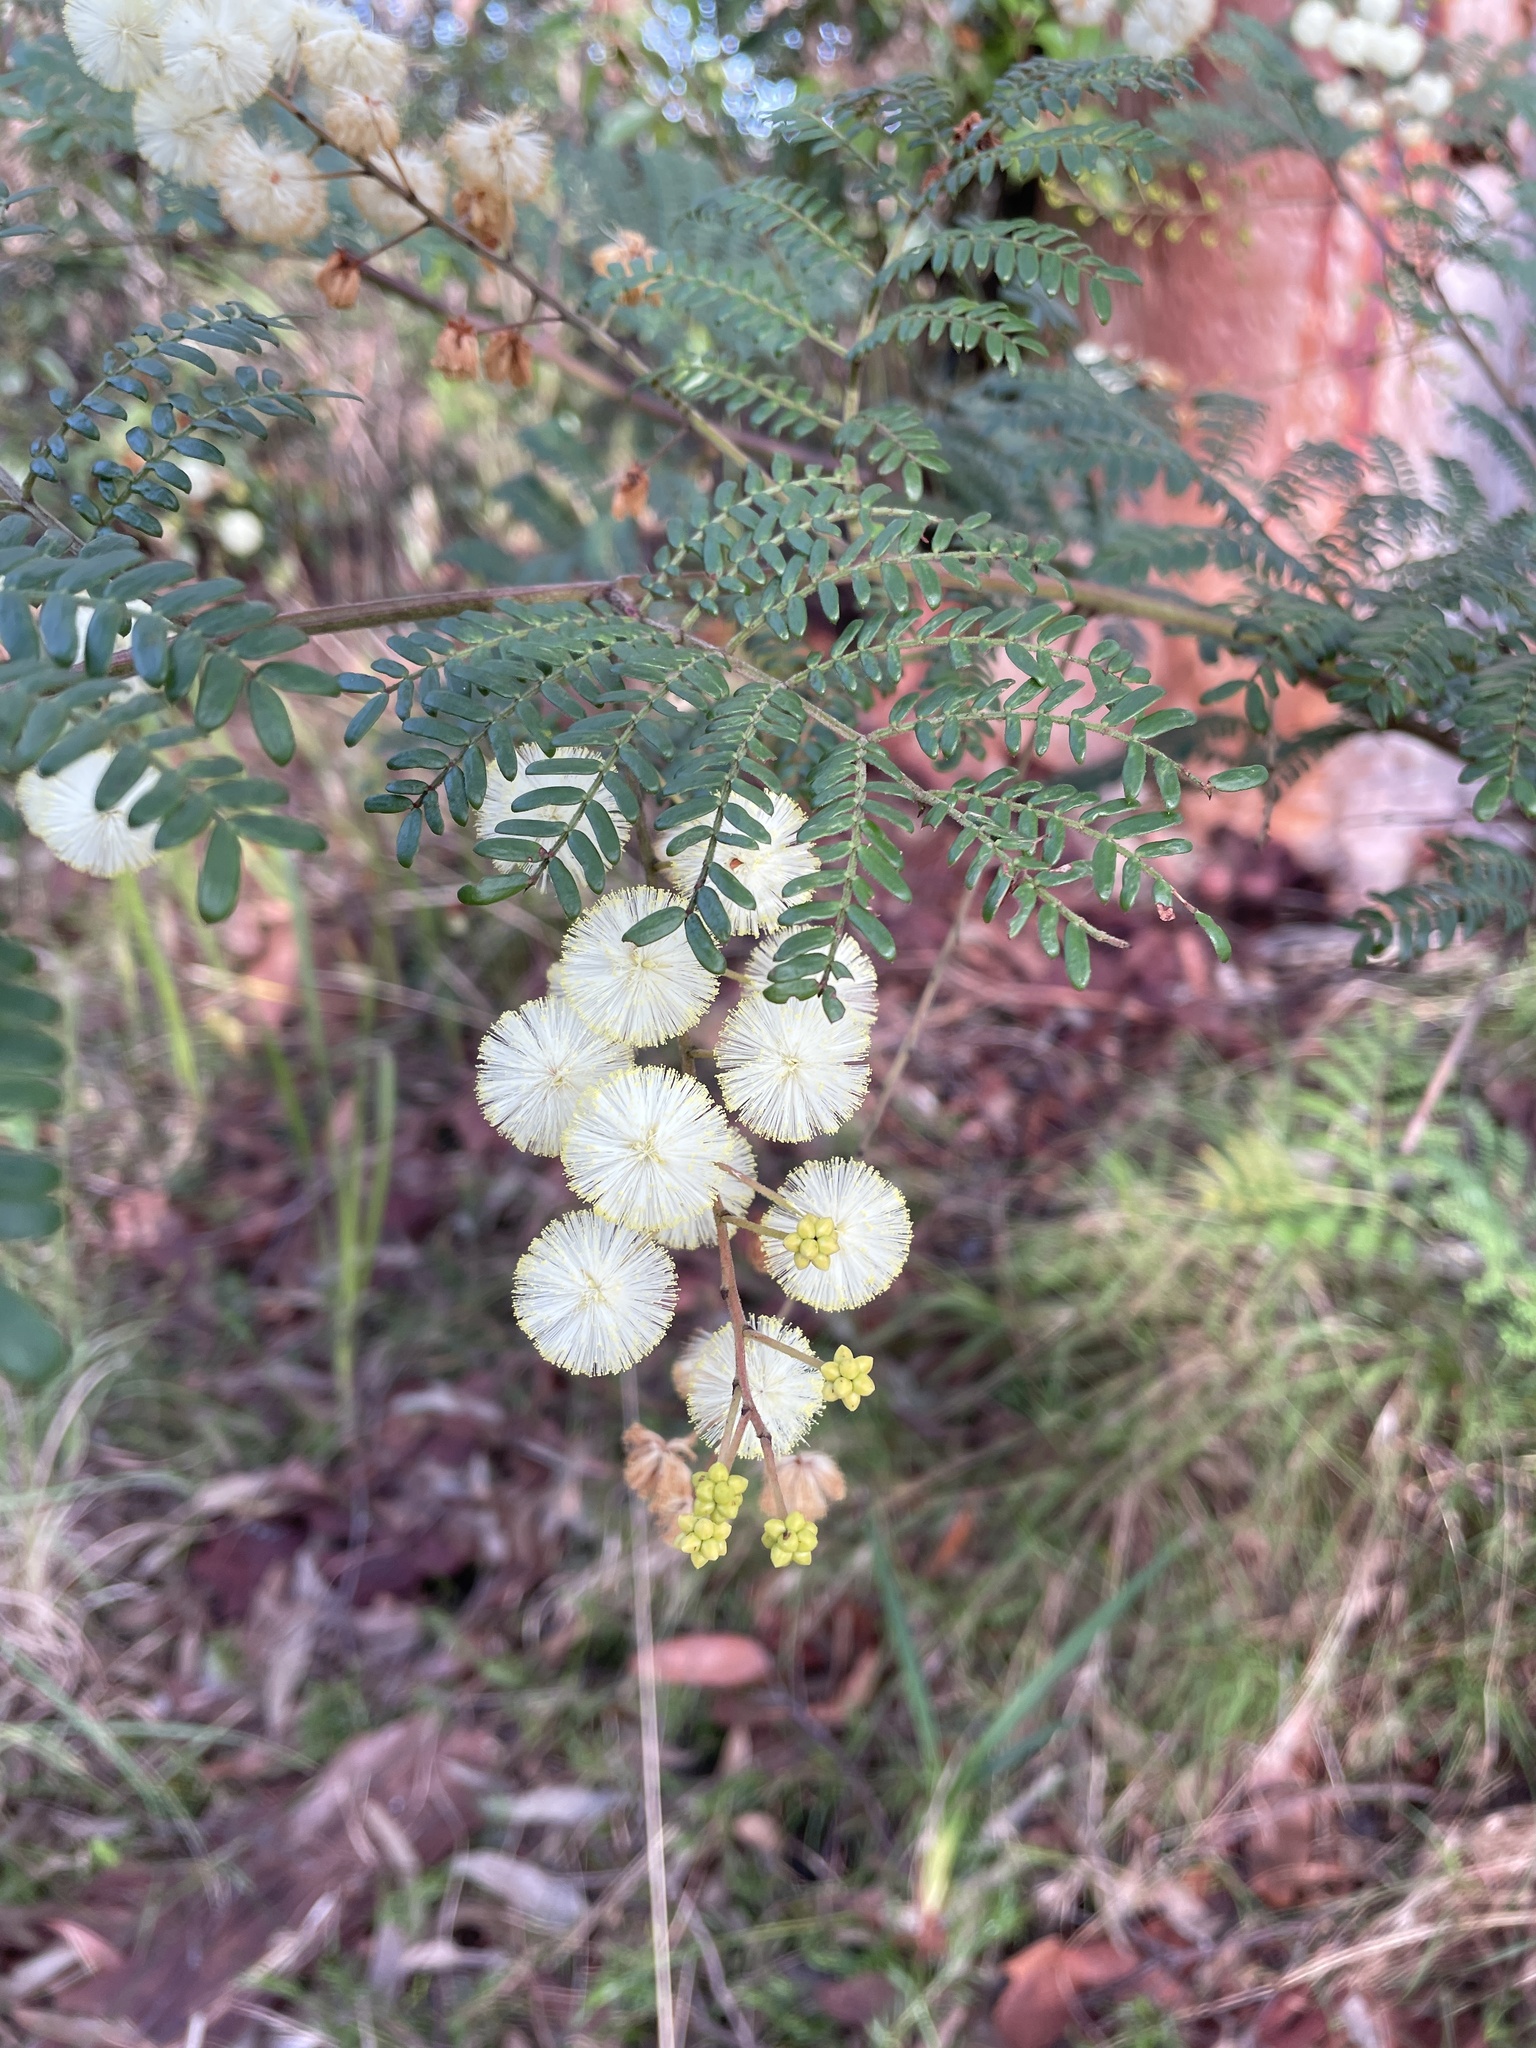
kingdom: Plantae
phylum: Tracheophyta
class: Magnoliopsida
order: Fabales
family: Fabaceae
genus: Acacia
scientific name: Acacia terminalis
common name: Cedar wattle
